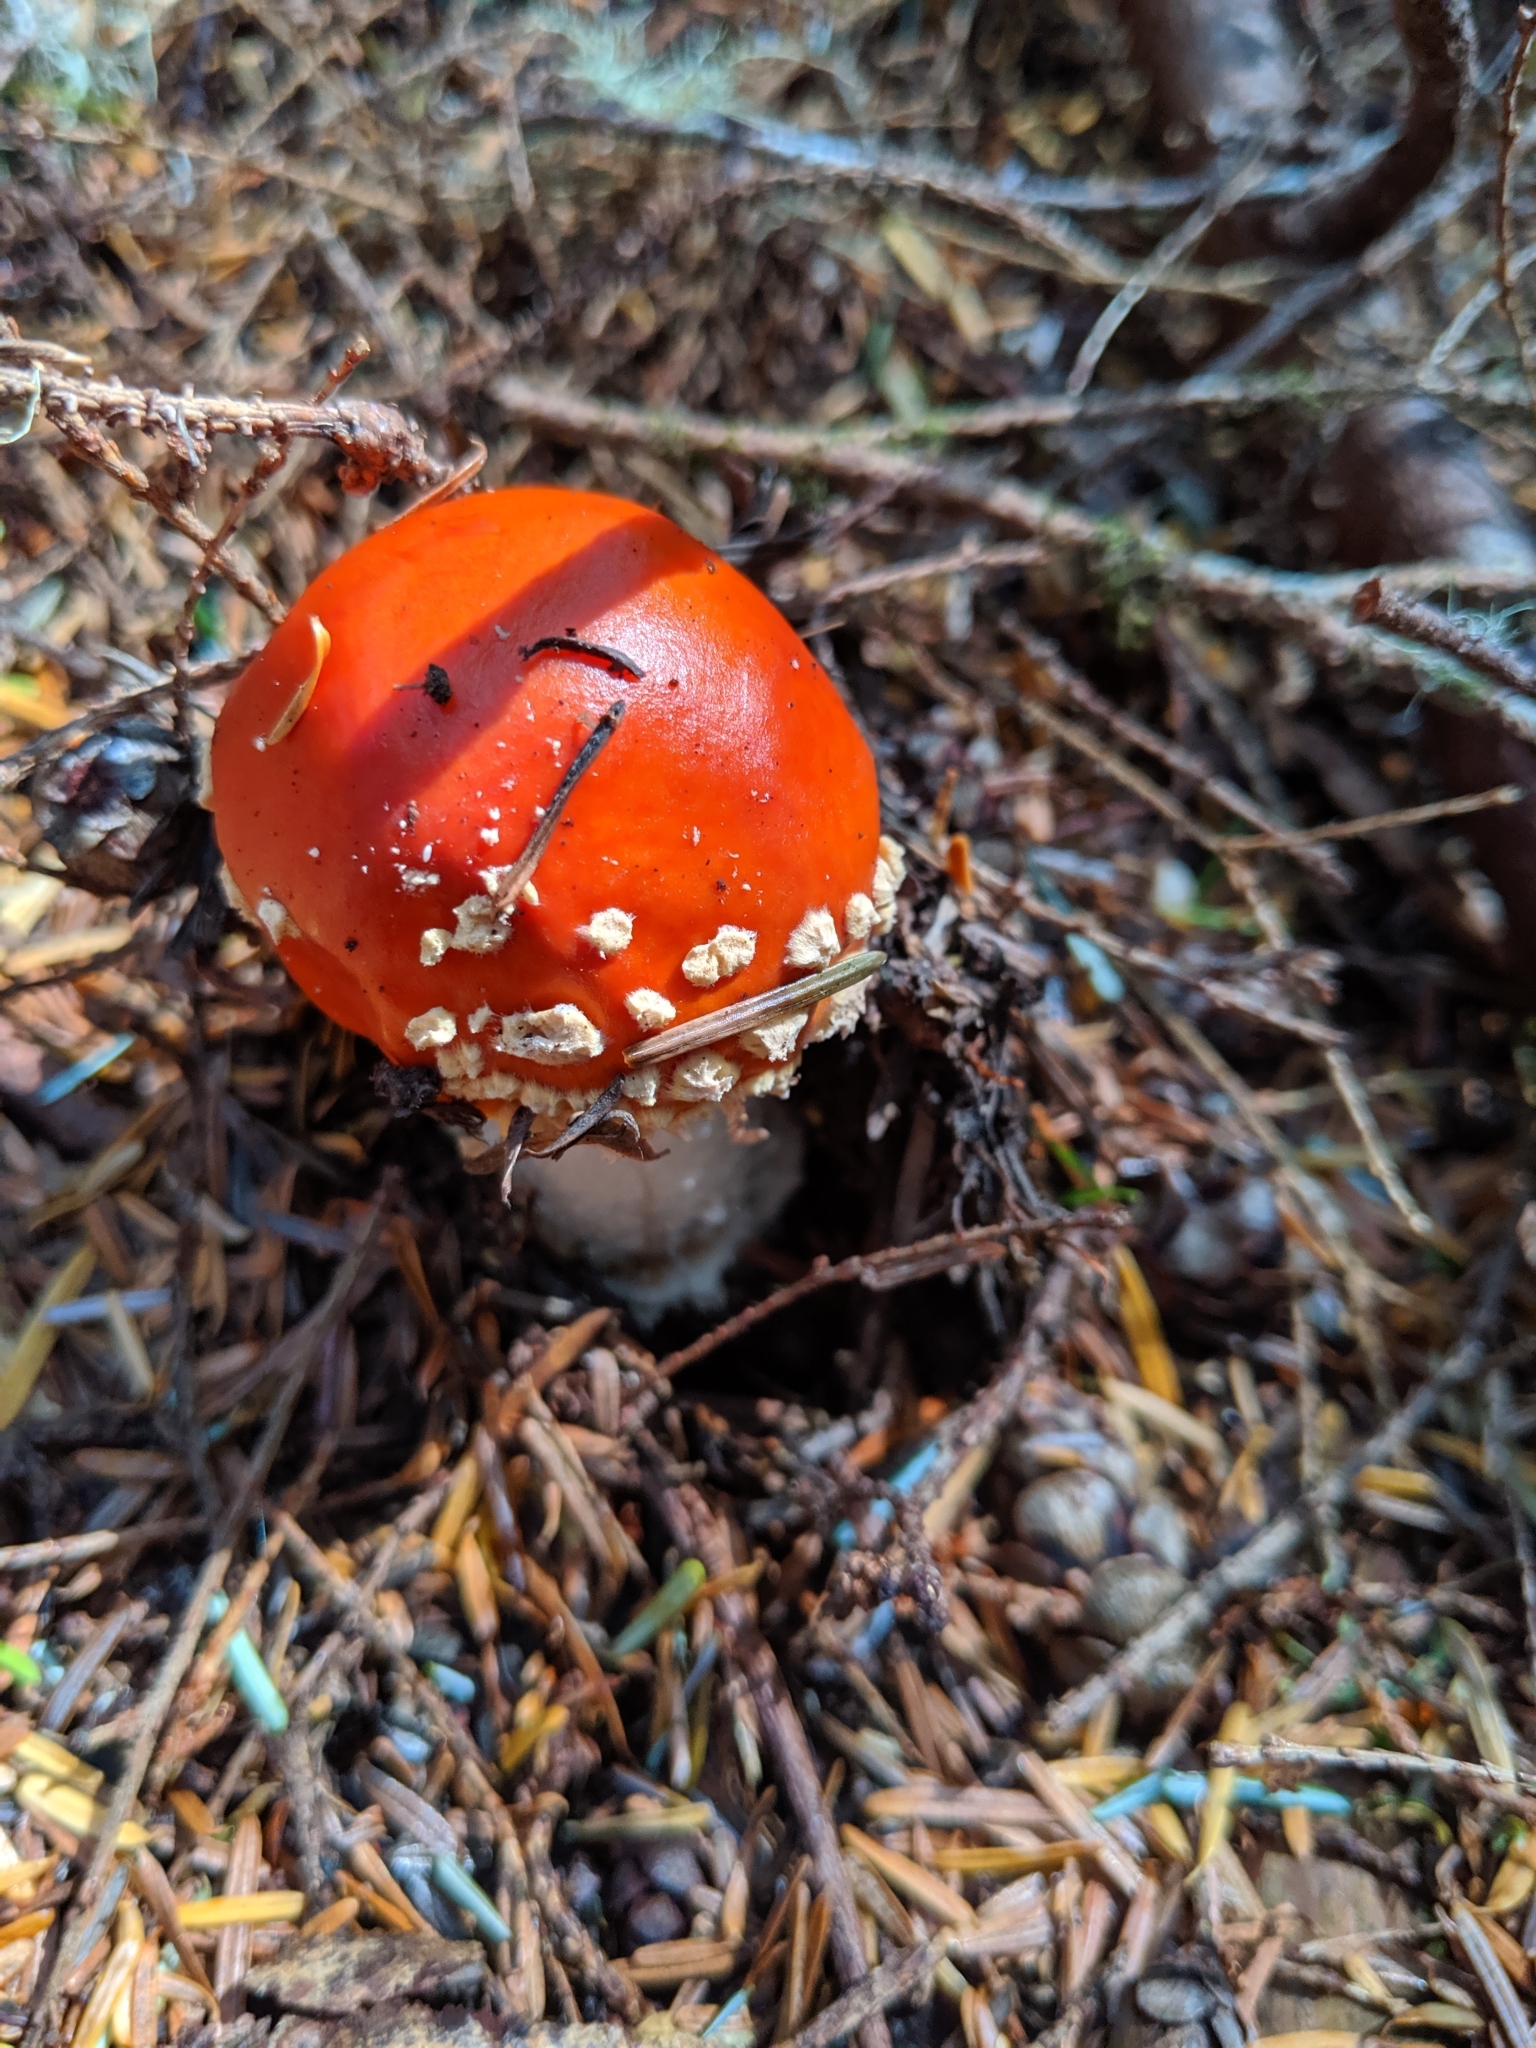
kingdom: Fungi
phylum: Basidiomycota
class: Agaricomycetes
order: Agaricales
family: Amanitaceae
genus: Amanita
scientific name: Amanita muscaria
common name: Fly agaric
